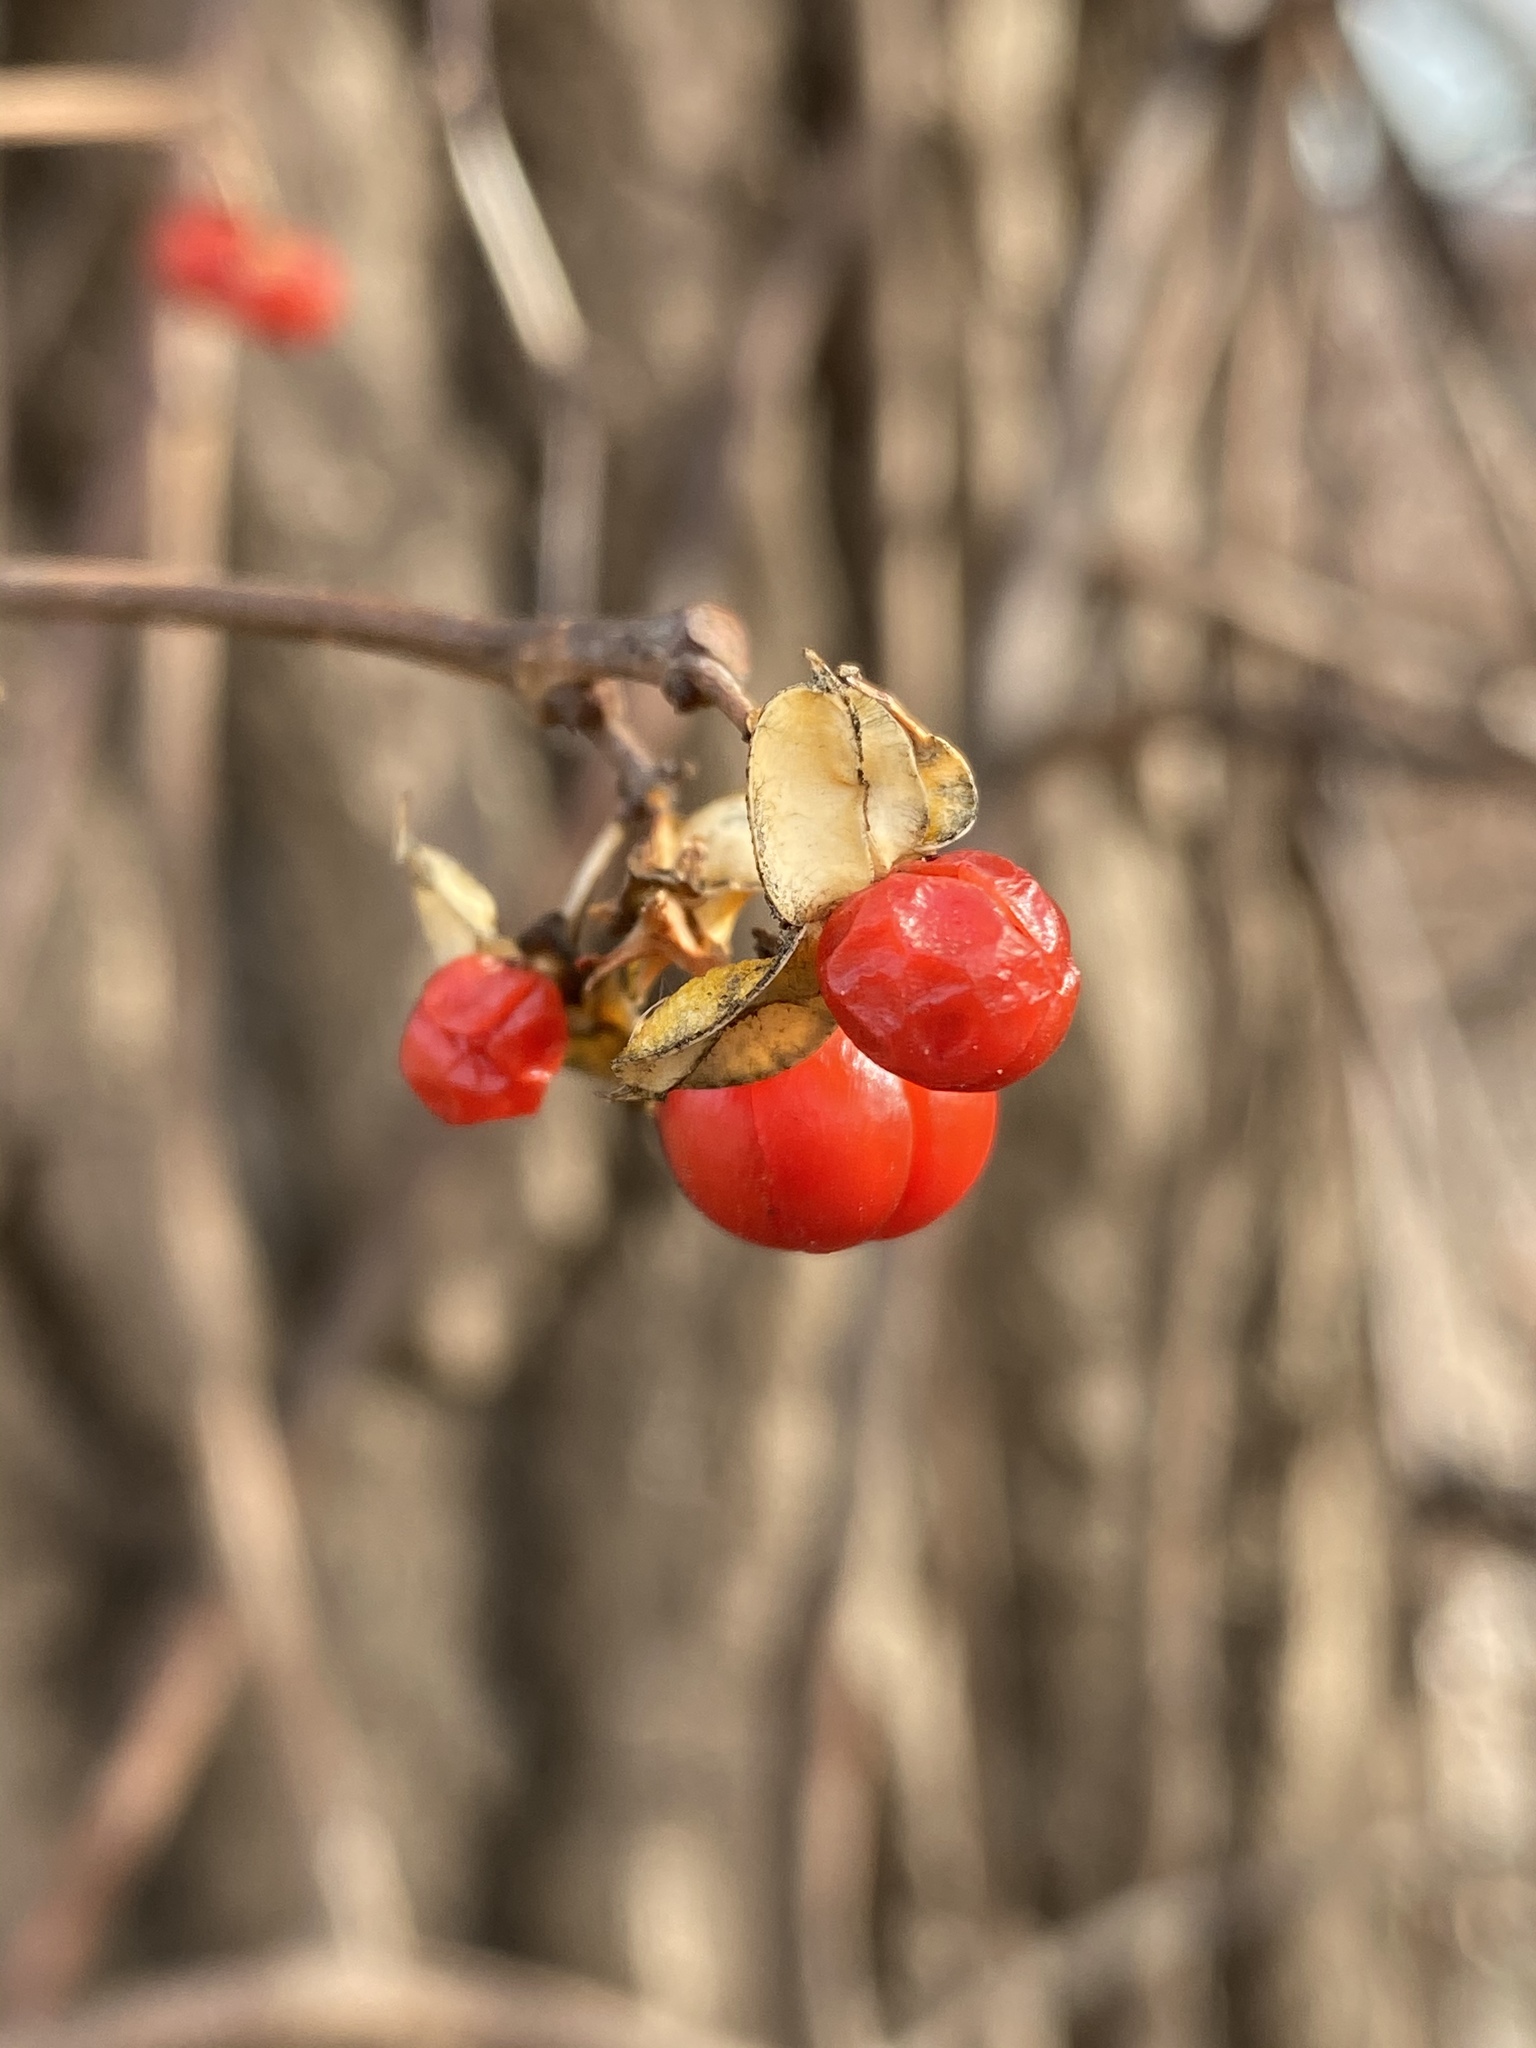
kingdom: Plantae
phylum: Tracheophyta
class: Magnoliopsida
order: Celastrales
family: Celastraceae
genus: Celastrus
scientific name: Celastrus orbiculatus
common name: Oriental bittersweet
